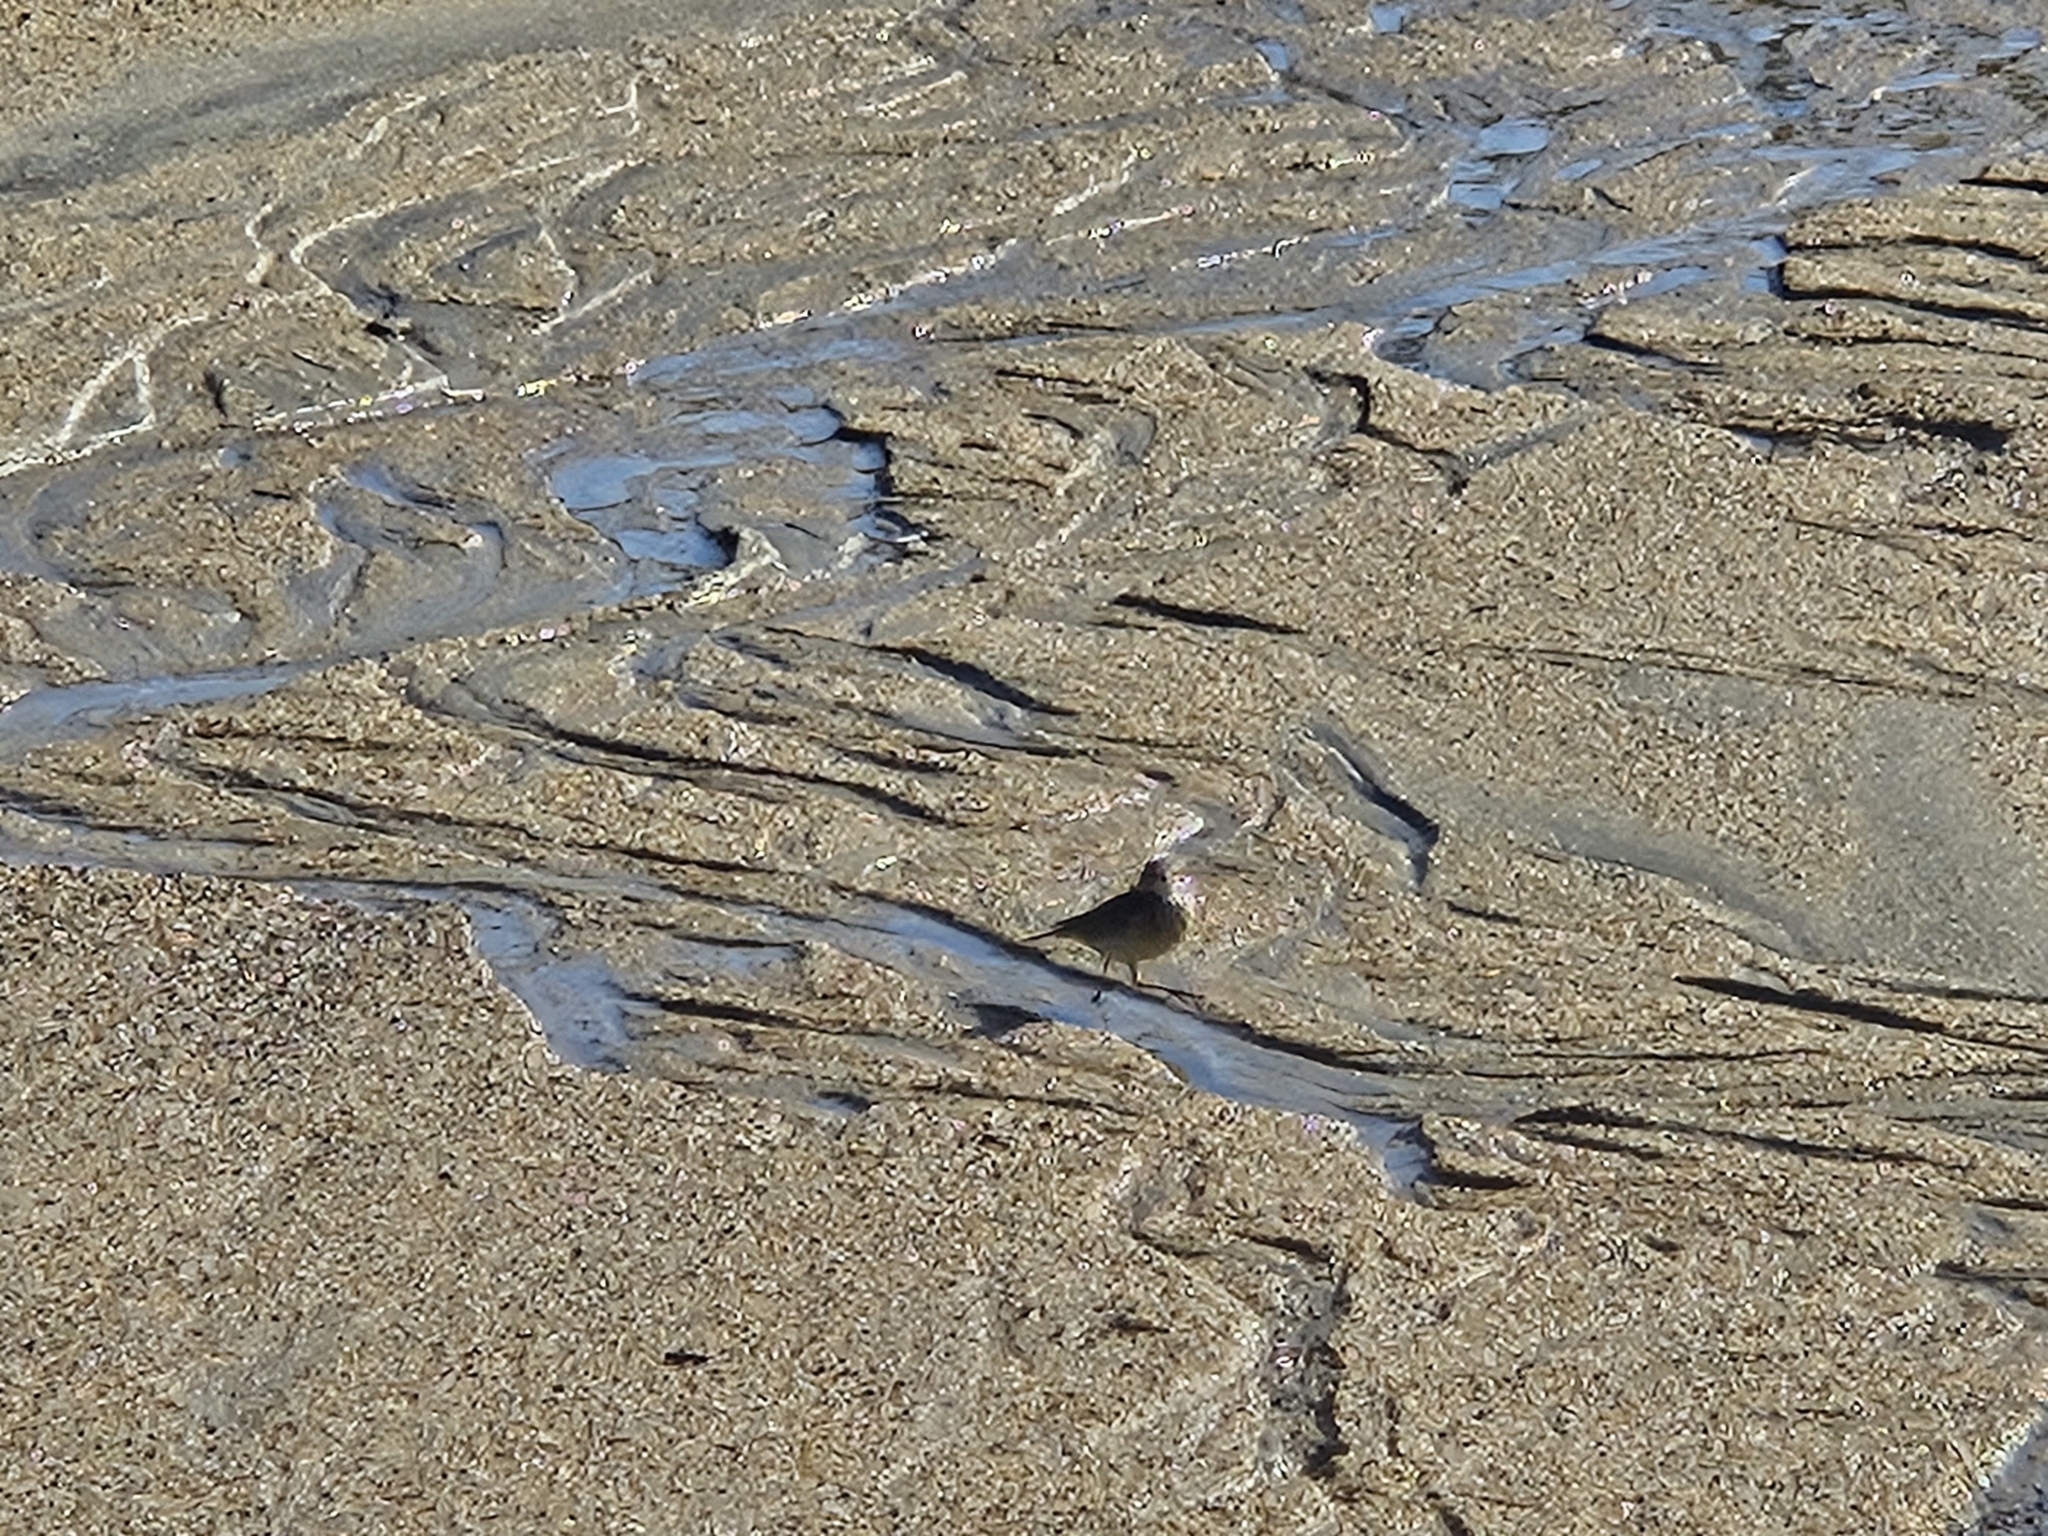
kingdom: Animalia
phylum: Chordata
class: Aves
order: Passeriformes
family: Motacillidae
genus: Anthus
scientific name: Anthus rubescens
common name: Buff-bellied pipit
